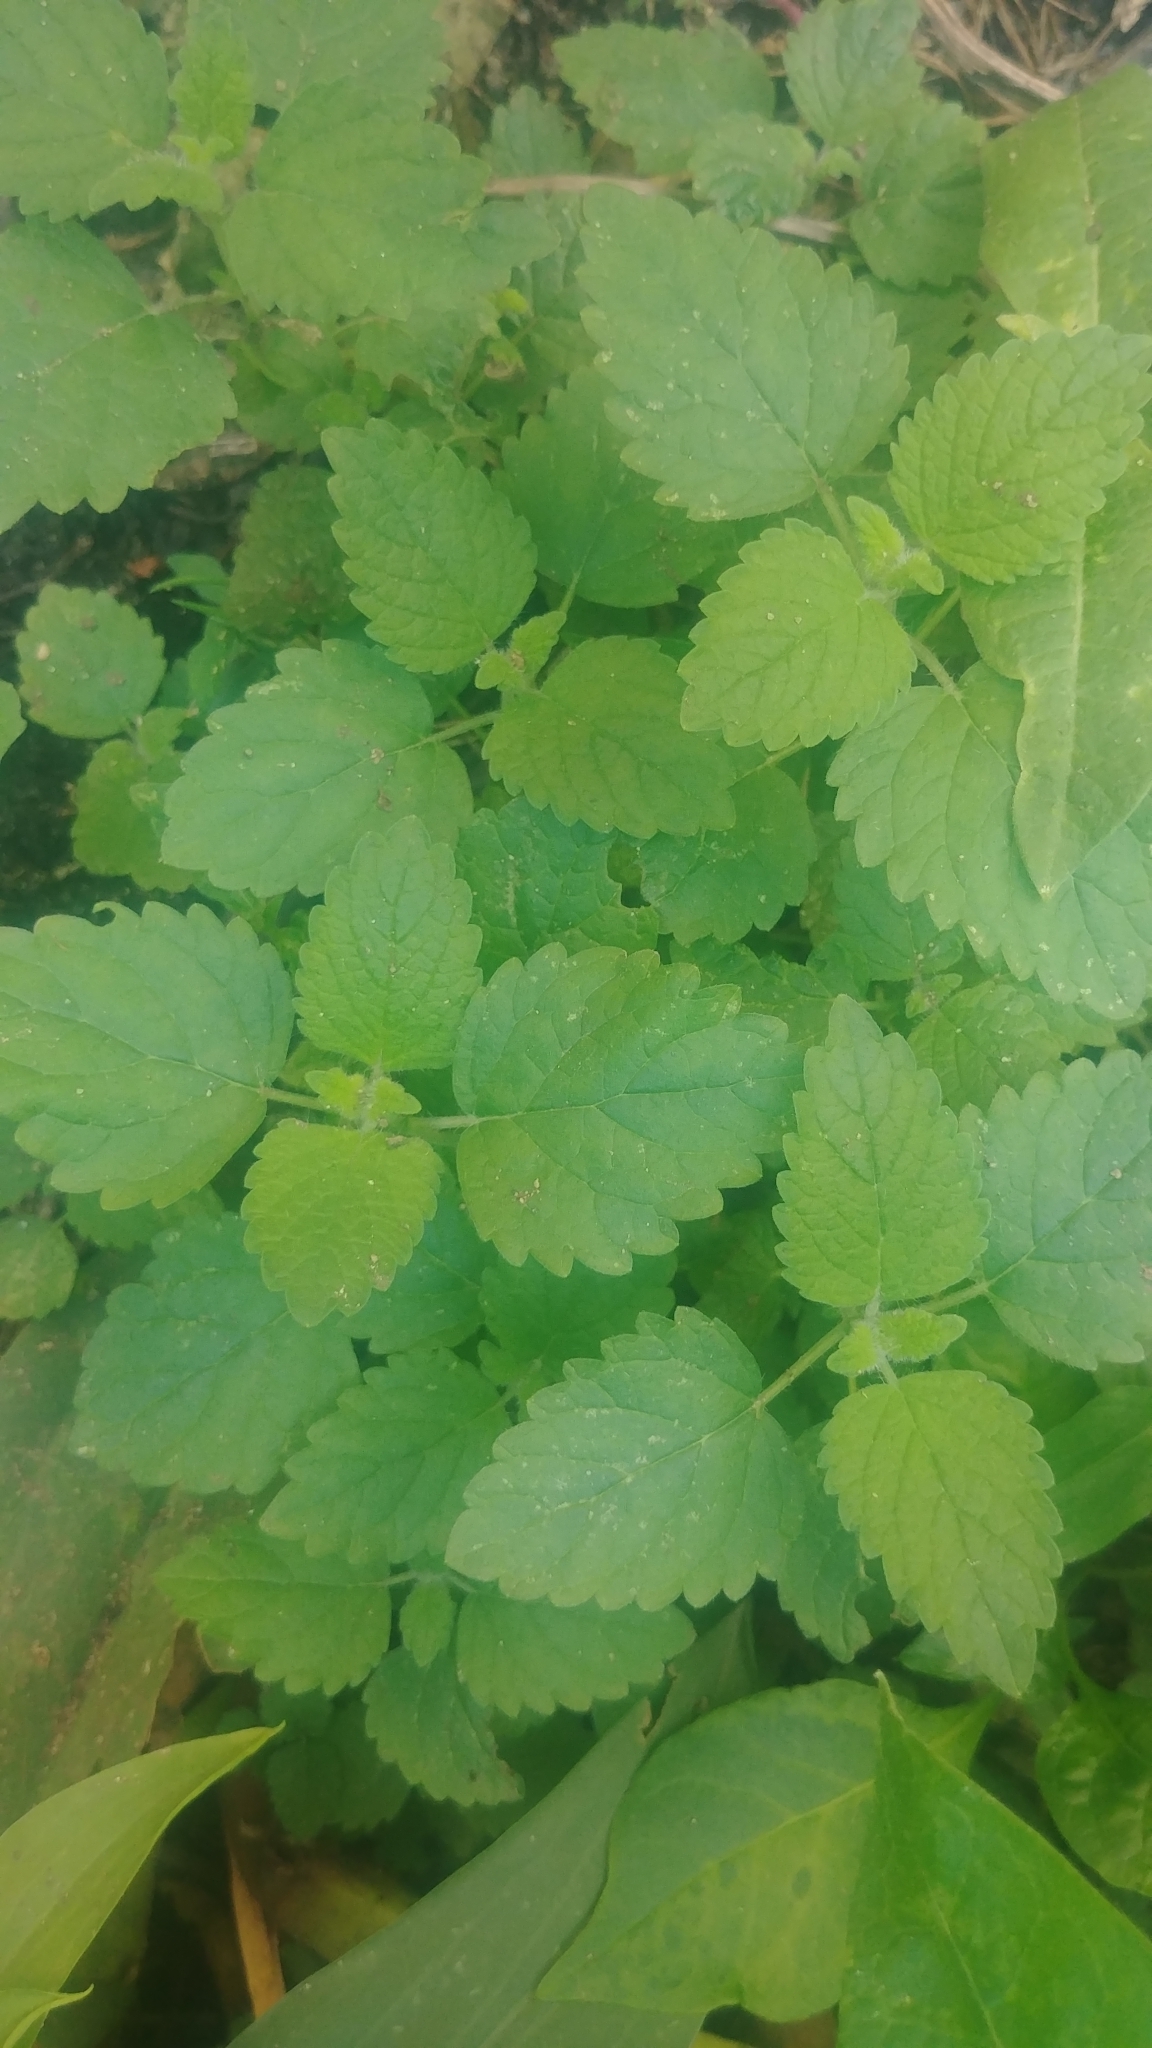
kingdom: Plantae
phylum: Tracheophyta
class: Magnoliopsida
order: Lamiales
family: Lamiaceae
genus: Melissa
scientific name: Melissa officinalis
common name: Balm
